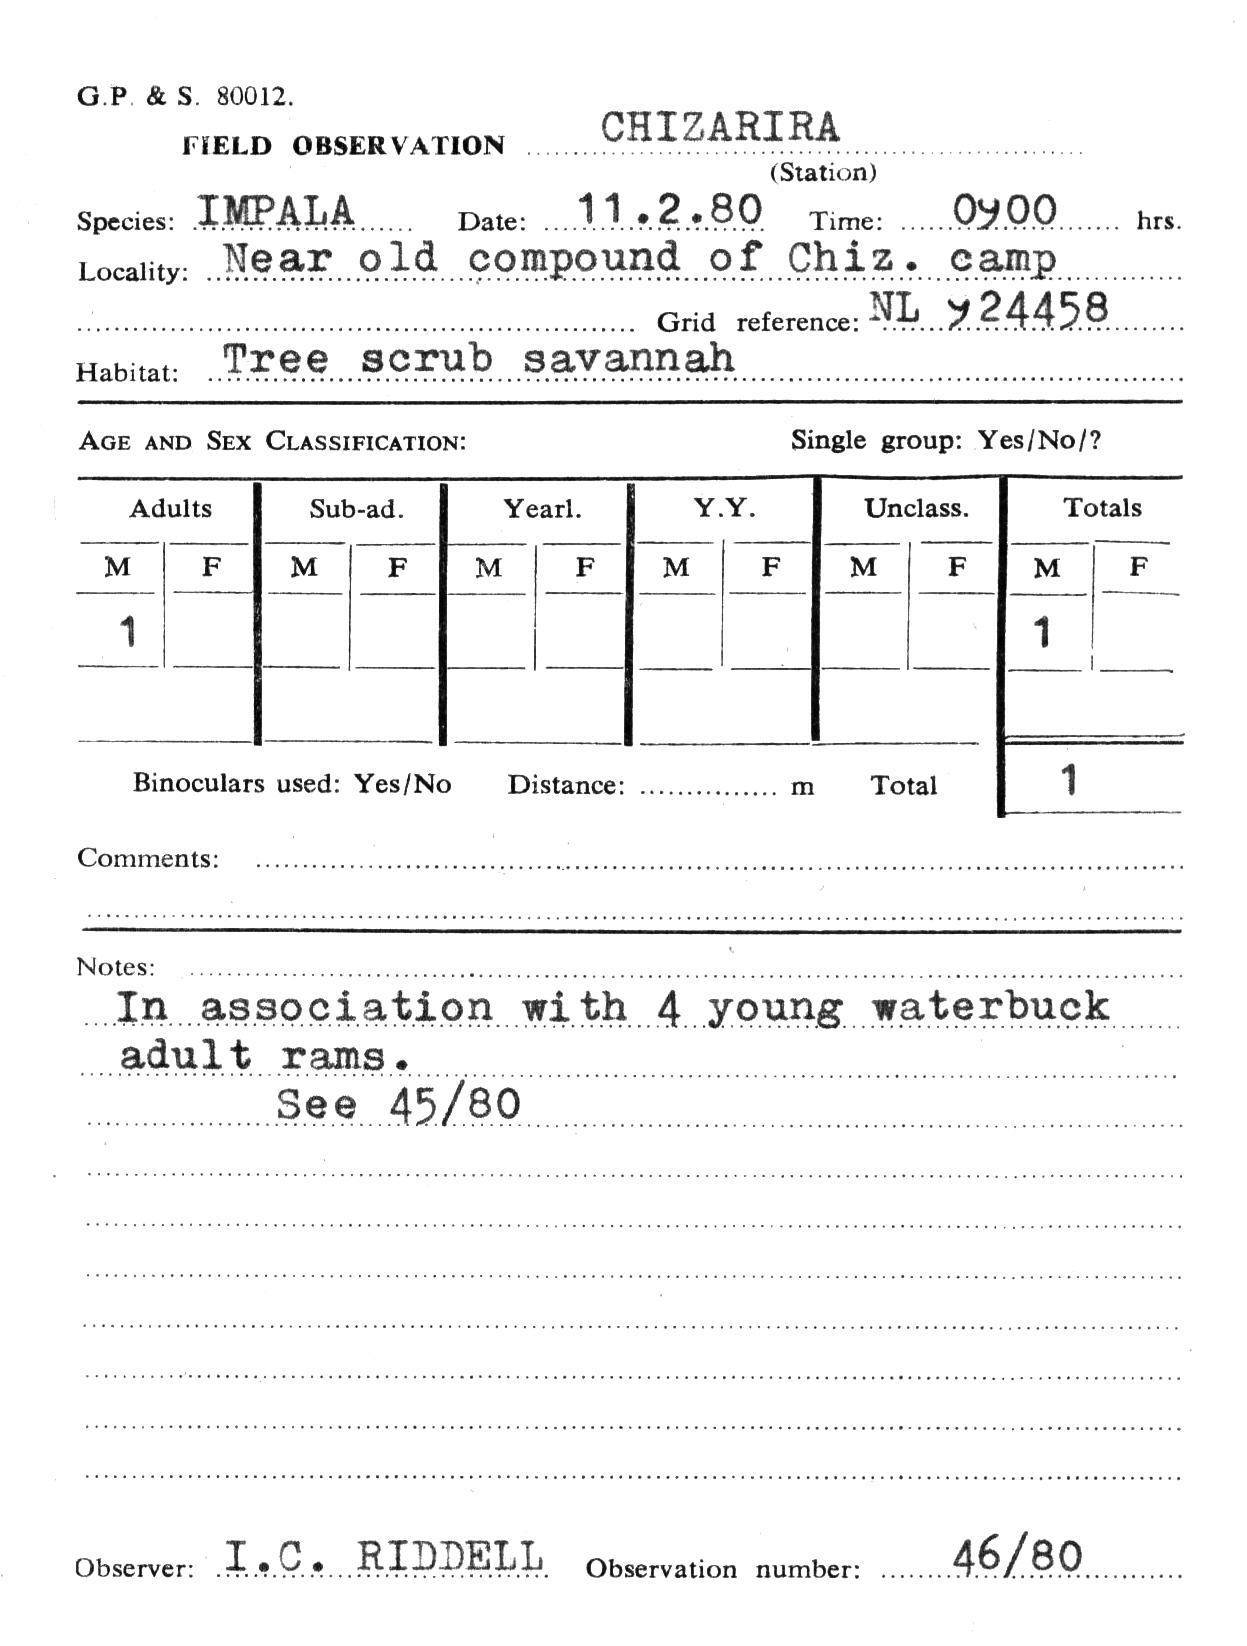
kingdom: Animalia
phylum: Chordata
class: Mammalia
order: Artiodactyla
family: Bovidae
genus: Aepyceros
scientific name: Aepyceros melampus
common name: Impala
